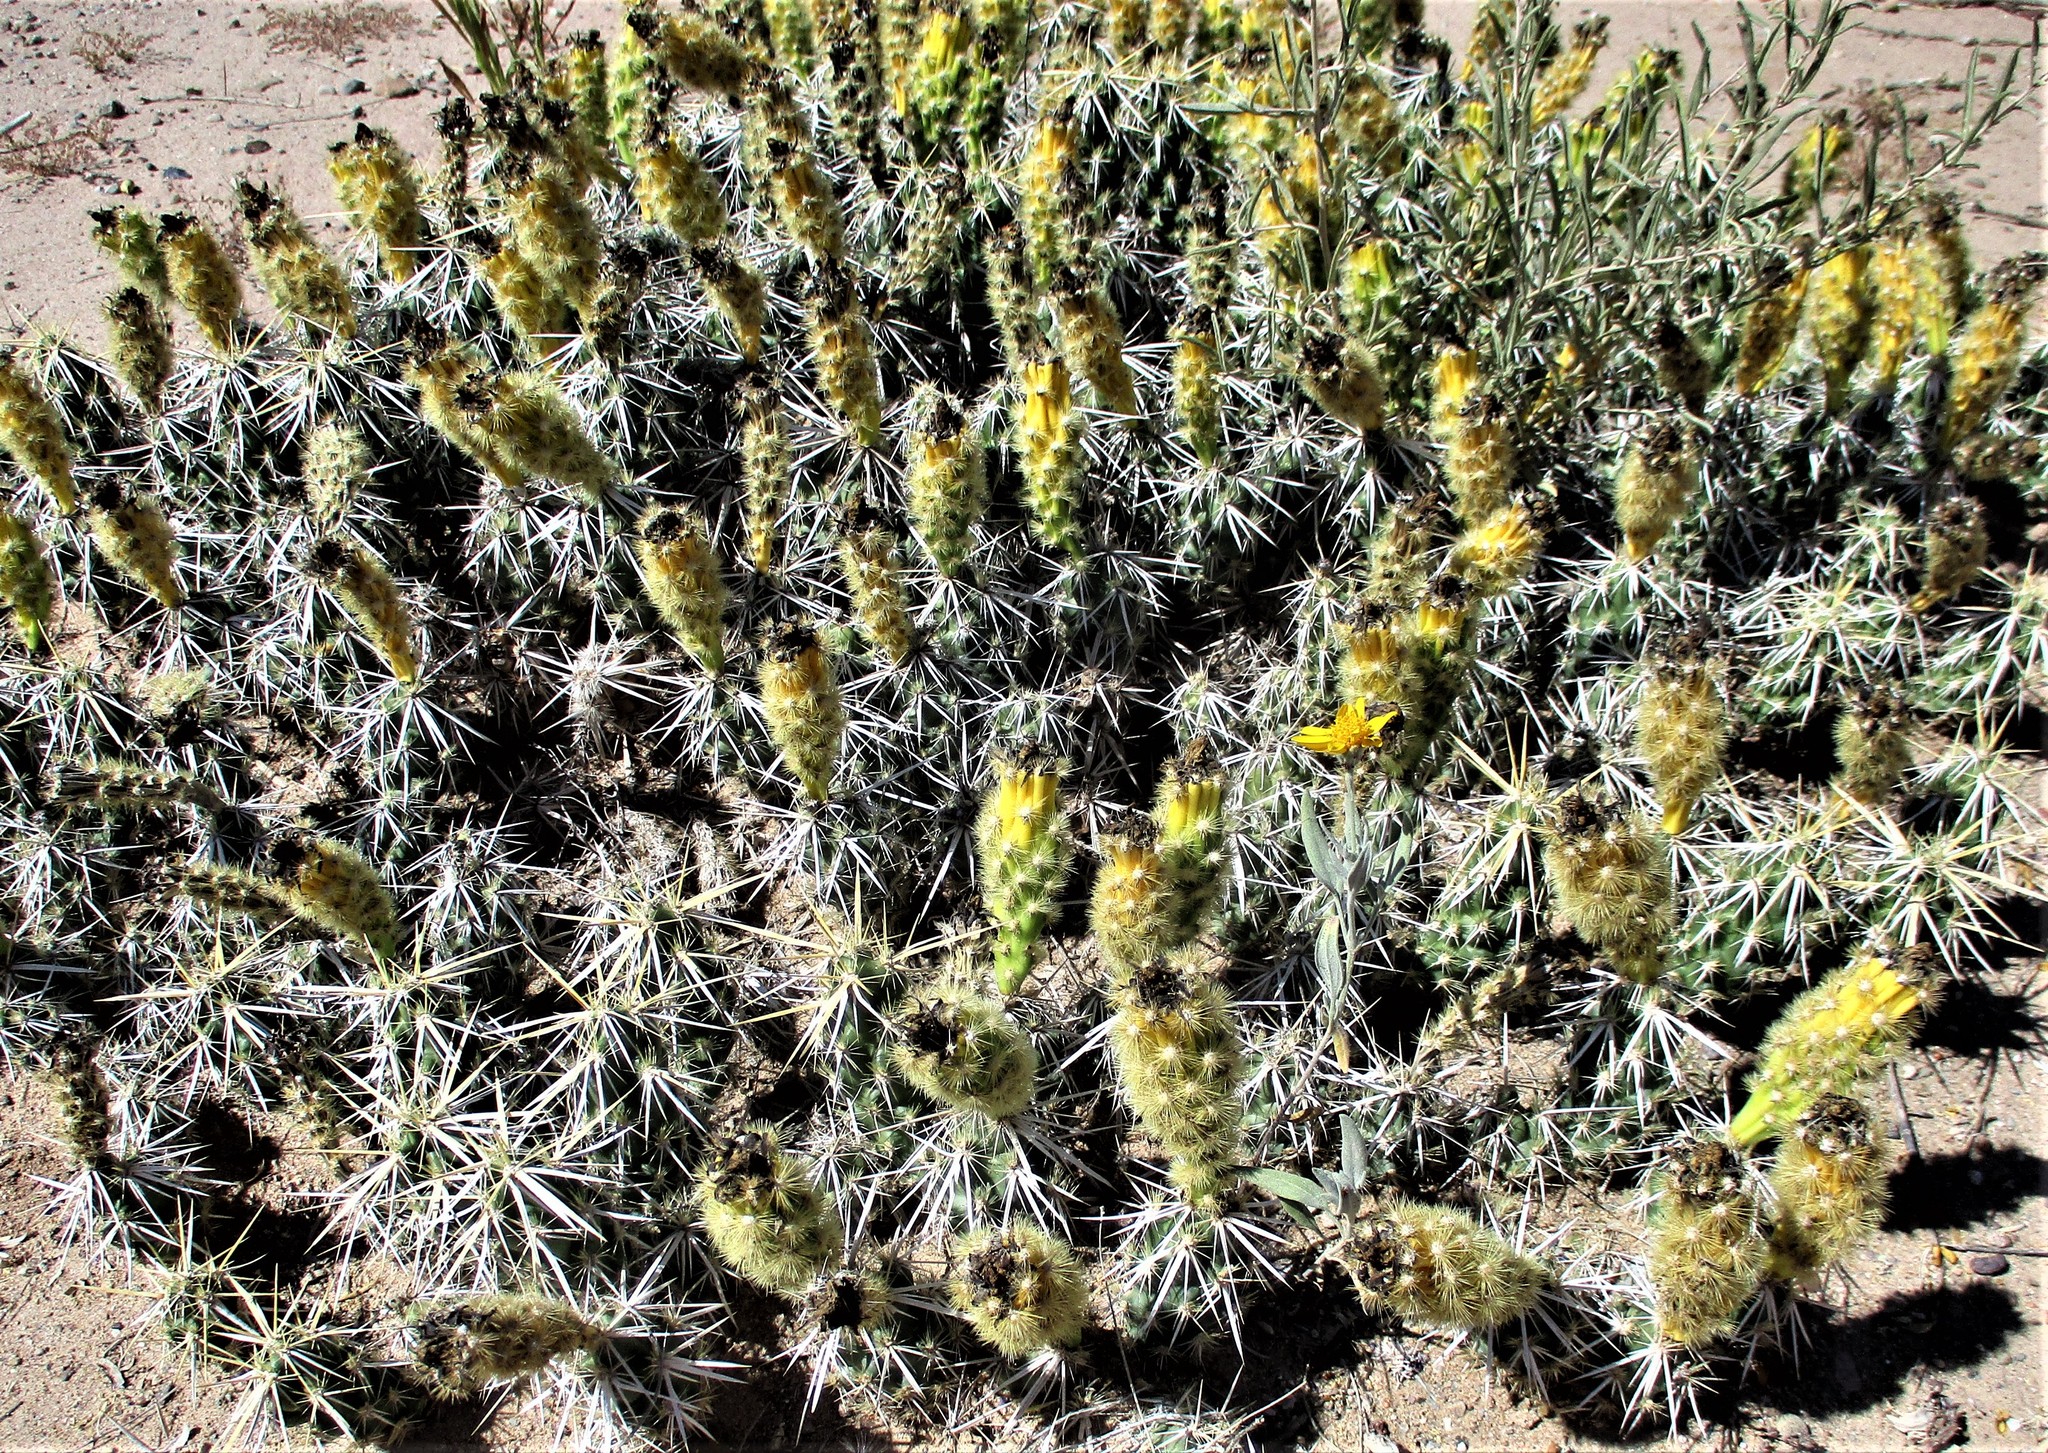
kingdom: Plantae
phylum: Tracheophyta
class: Magnoliopsida
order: Caryophyllales
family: Cactaceae
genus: Grusonia
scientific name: Grusonia clavata
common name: Club cholla
